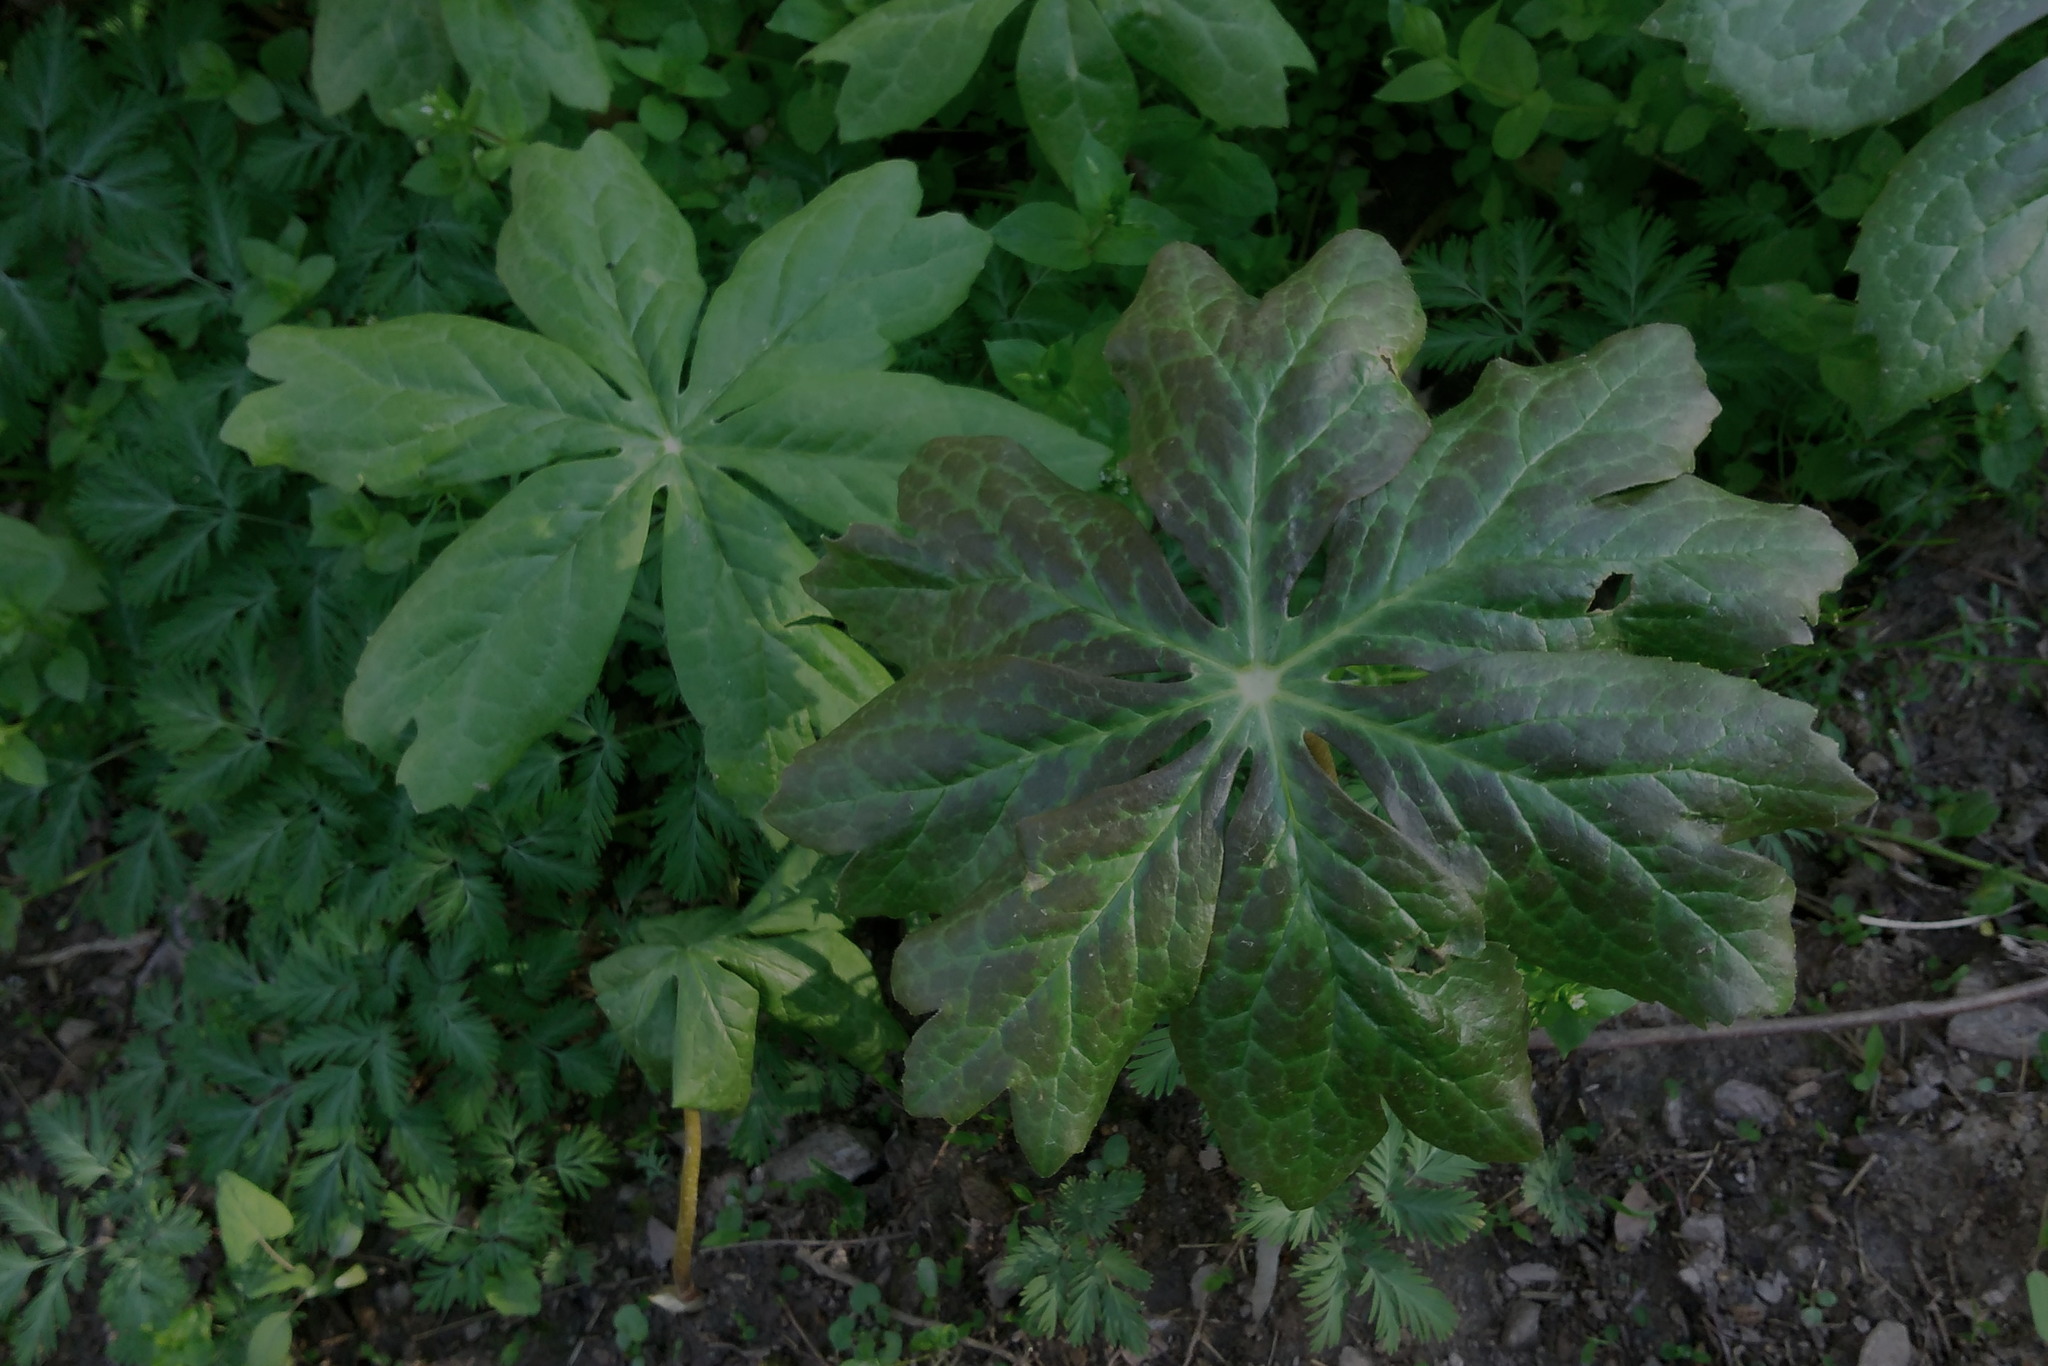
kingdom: Plantae
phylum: Tracheophyta
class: Magnoliopsida
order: Ranunculales
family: Berberidaceae
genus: Podophyllum
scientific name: Podophyllum peltatum
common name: Wild mandrake
